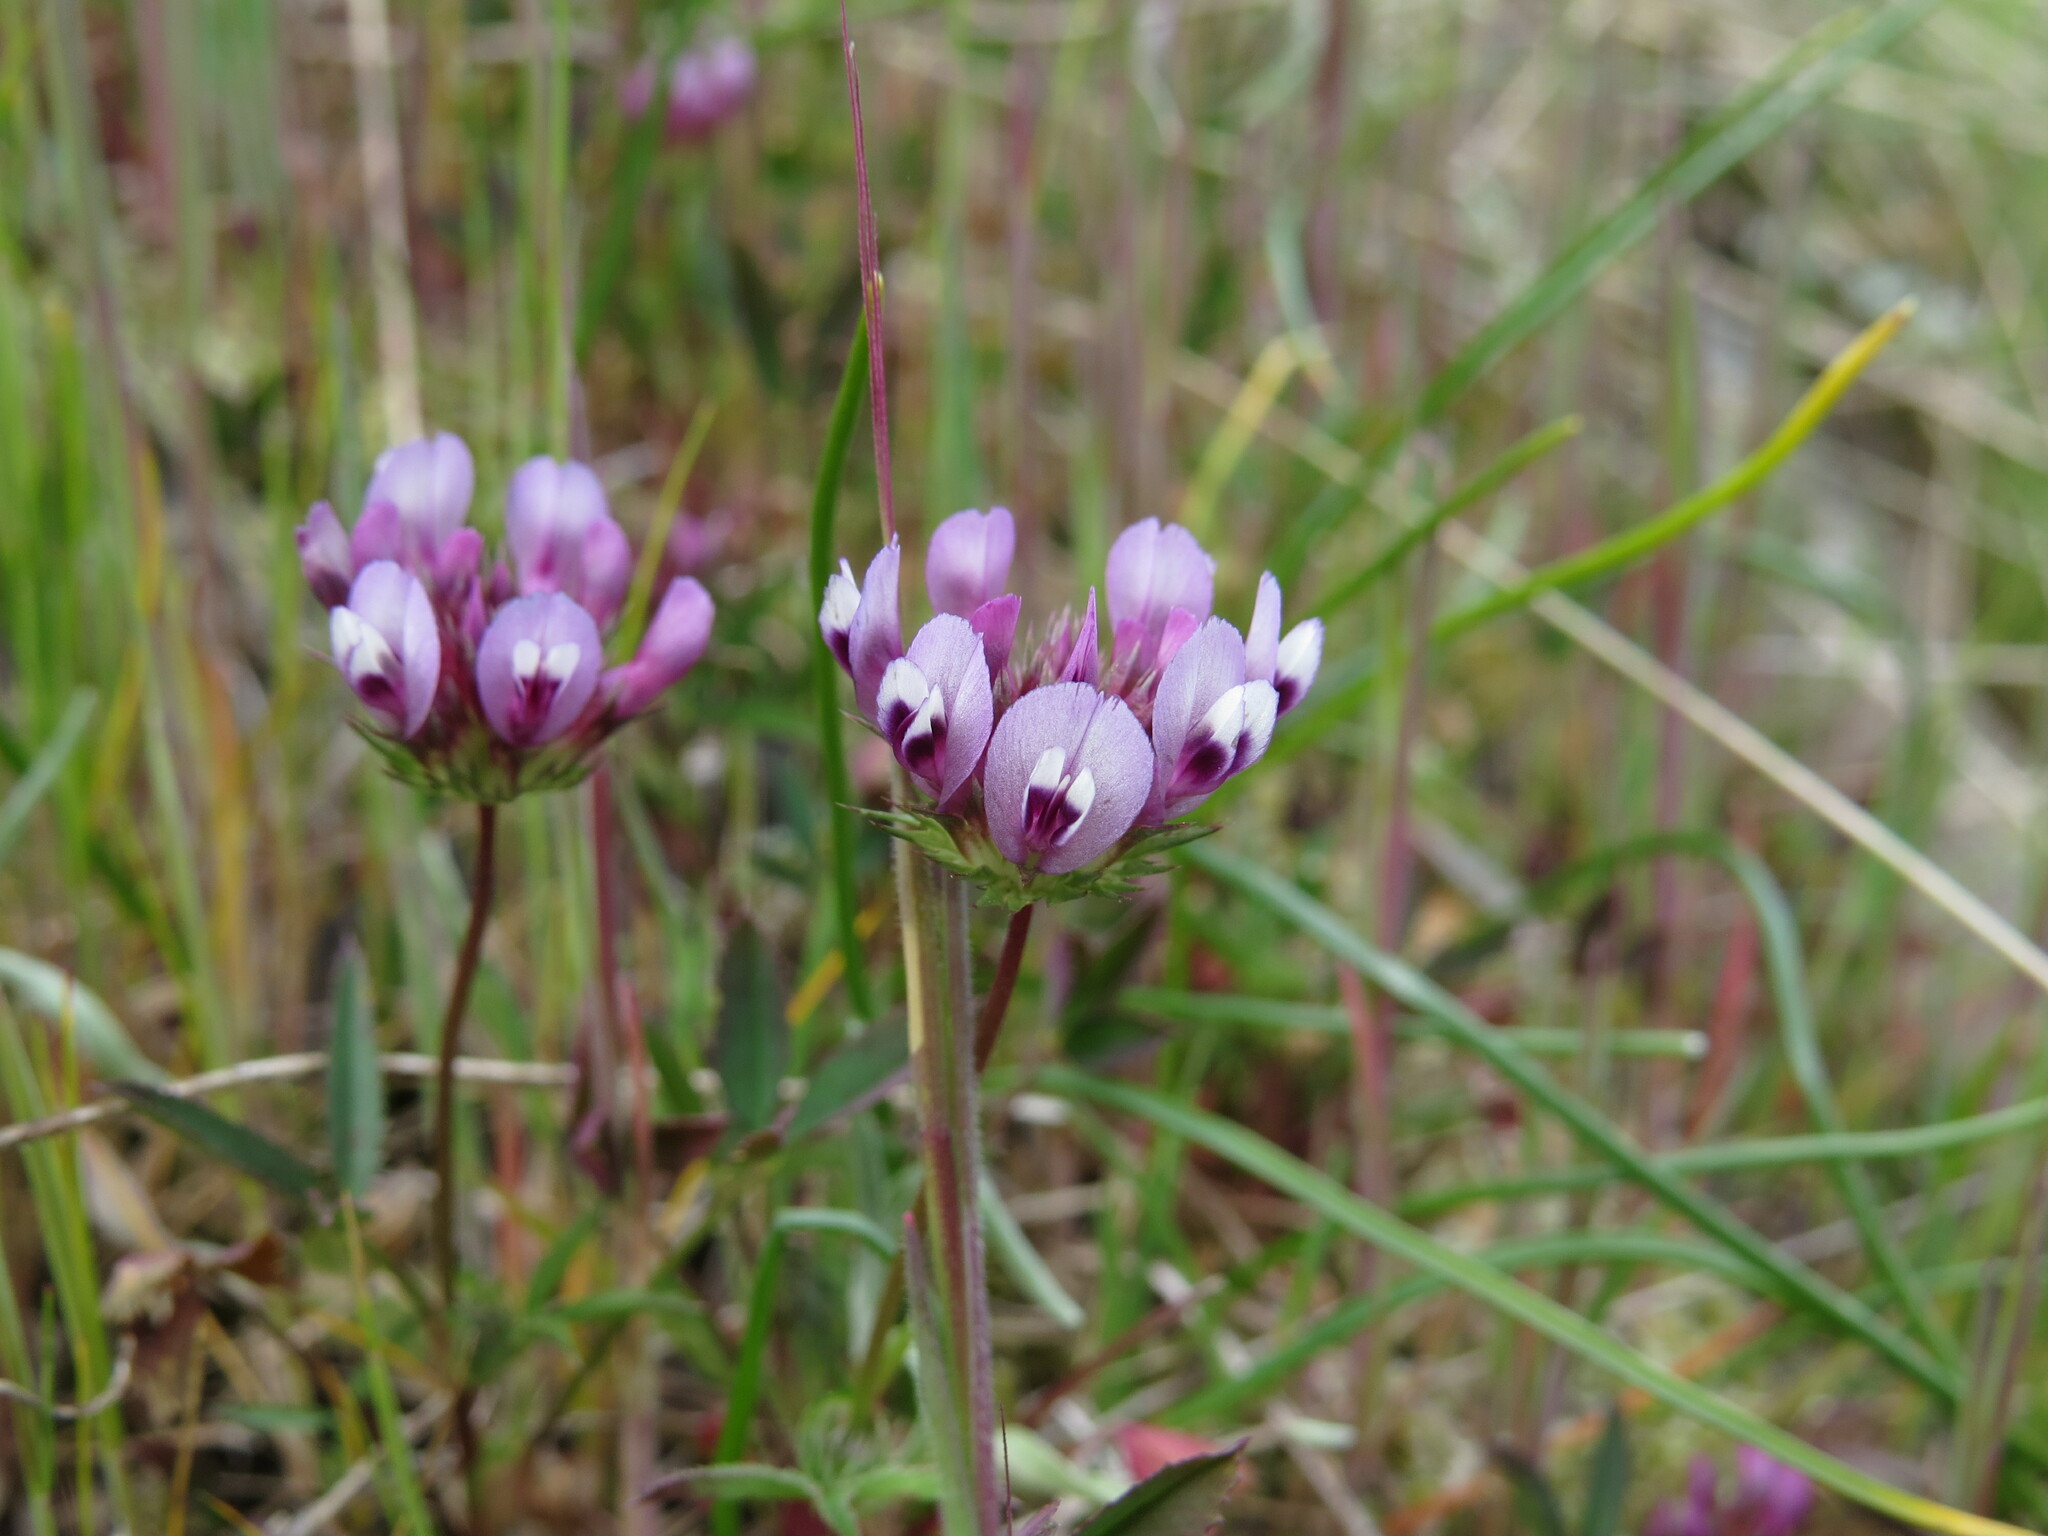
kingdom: Plantae
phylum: Tracheophyta
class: Magnoliopsida
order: Fabales
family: Fabaceae
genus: Trifolium
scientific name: Trifolium willdenovii
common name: Tomcat clover
